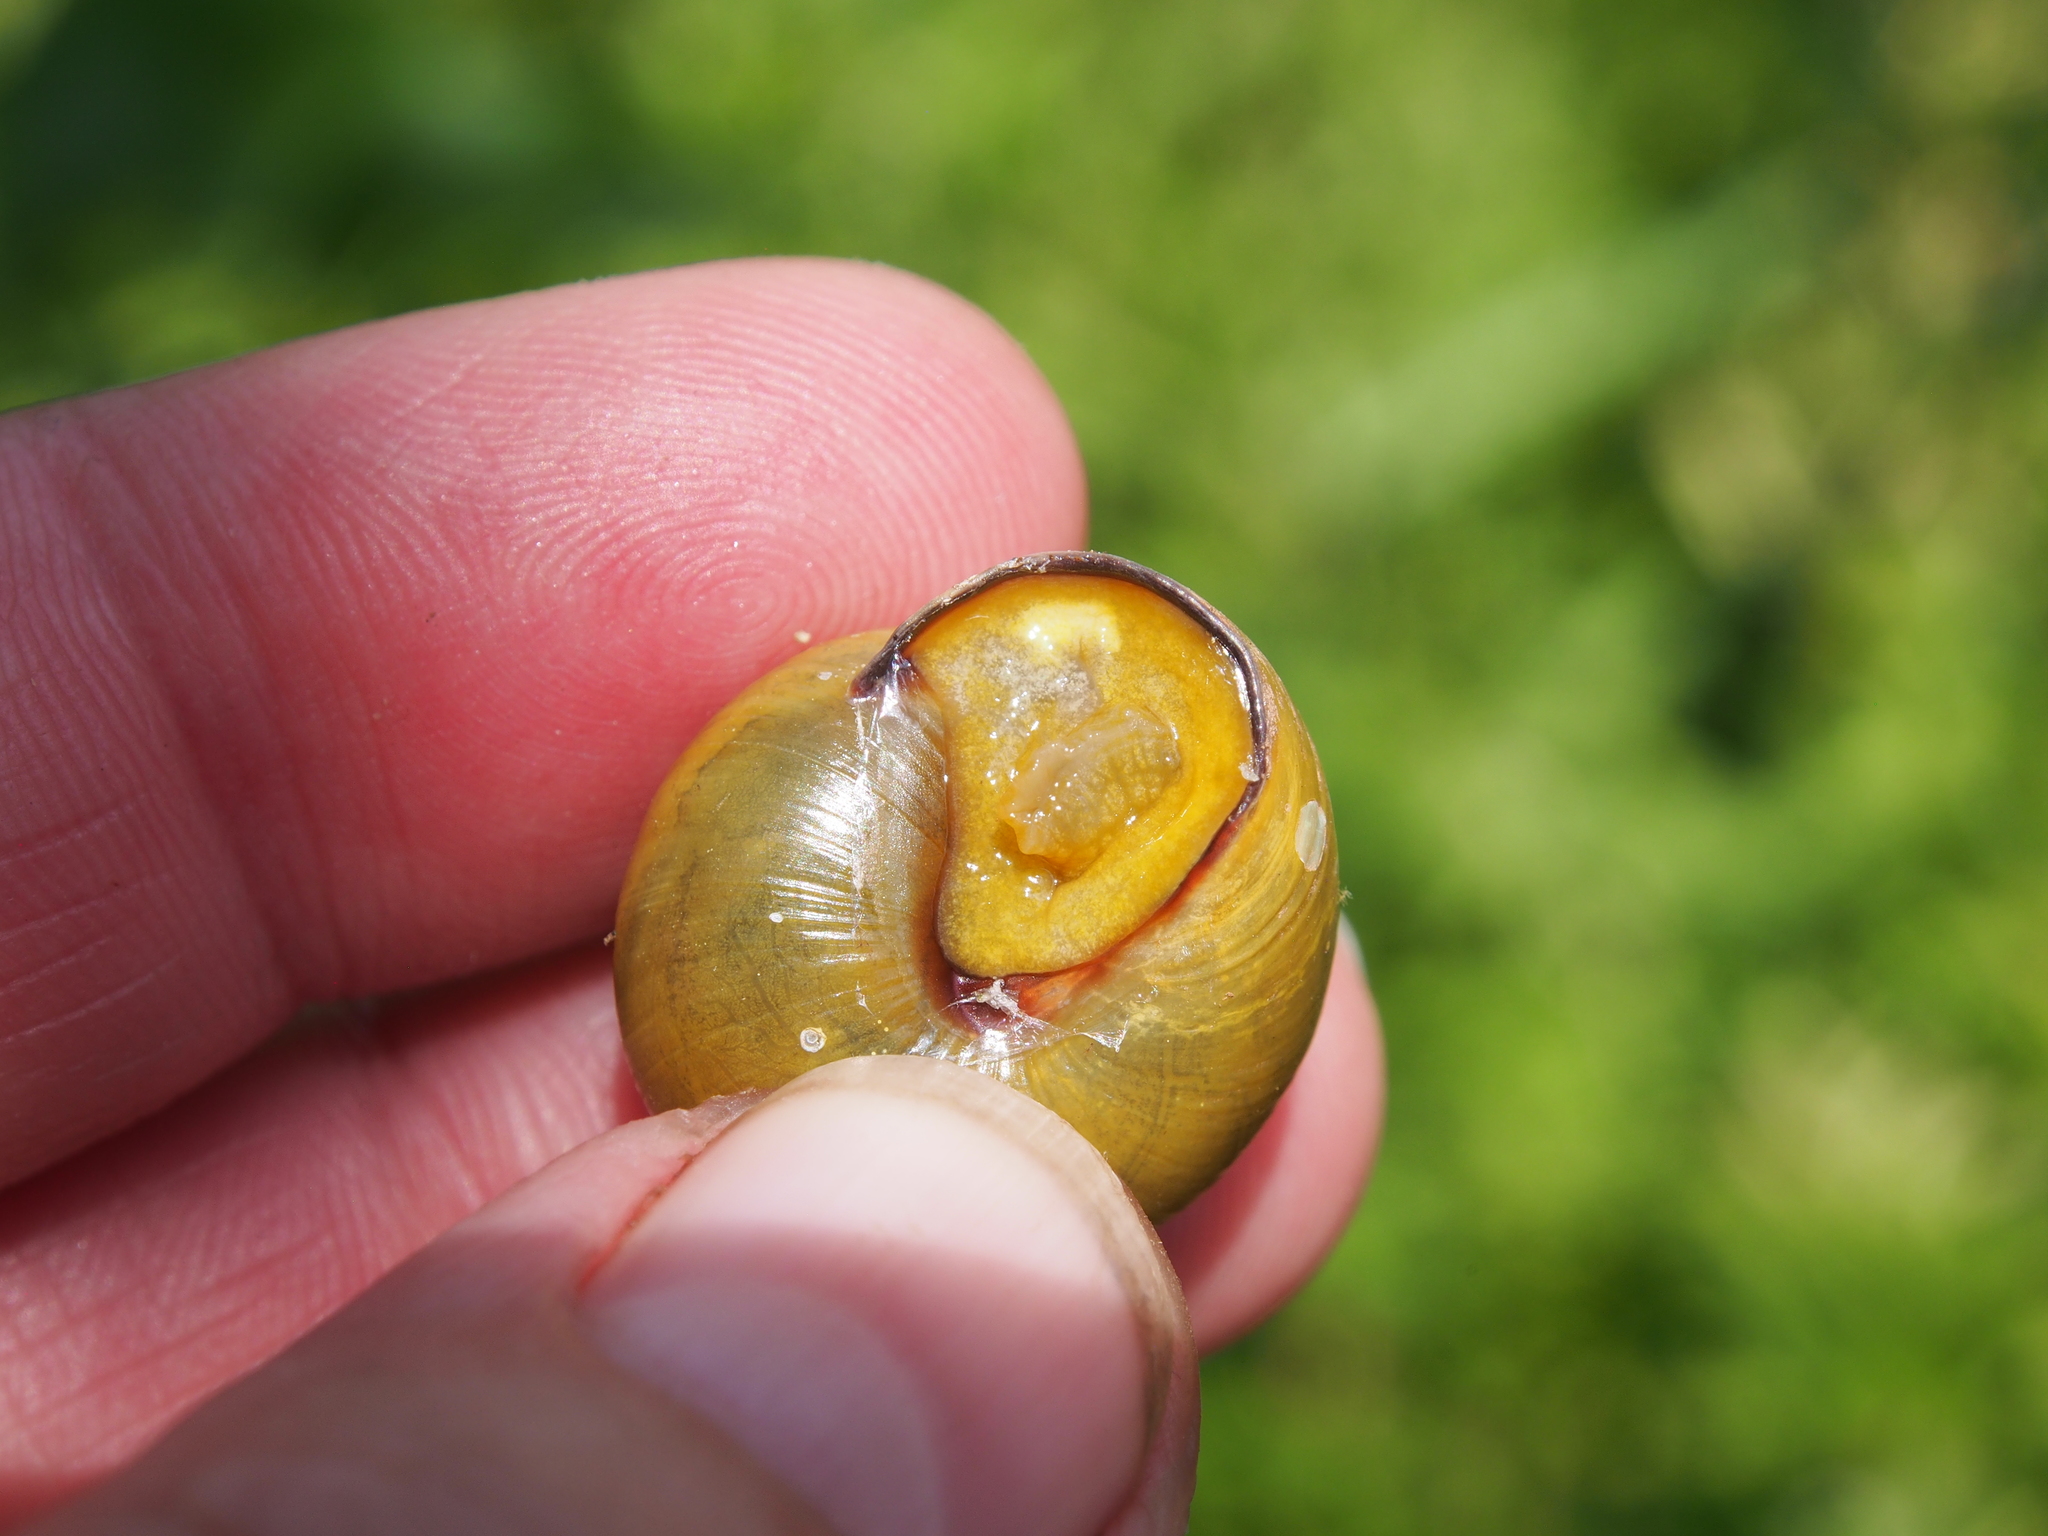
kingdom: Animalia
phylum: Mollusca
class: Gastropoda
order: Stylommatophora
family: Helicidae
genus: Cepaea
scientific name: Cepaea nemoralis
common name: Grovesnail
